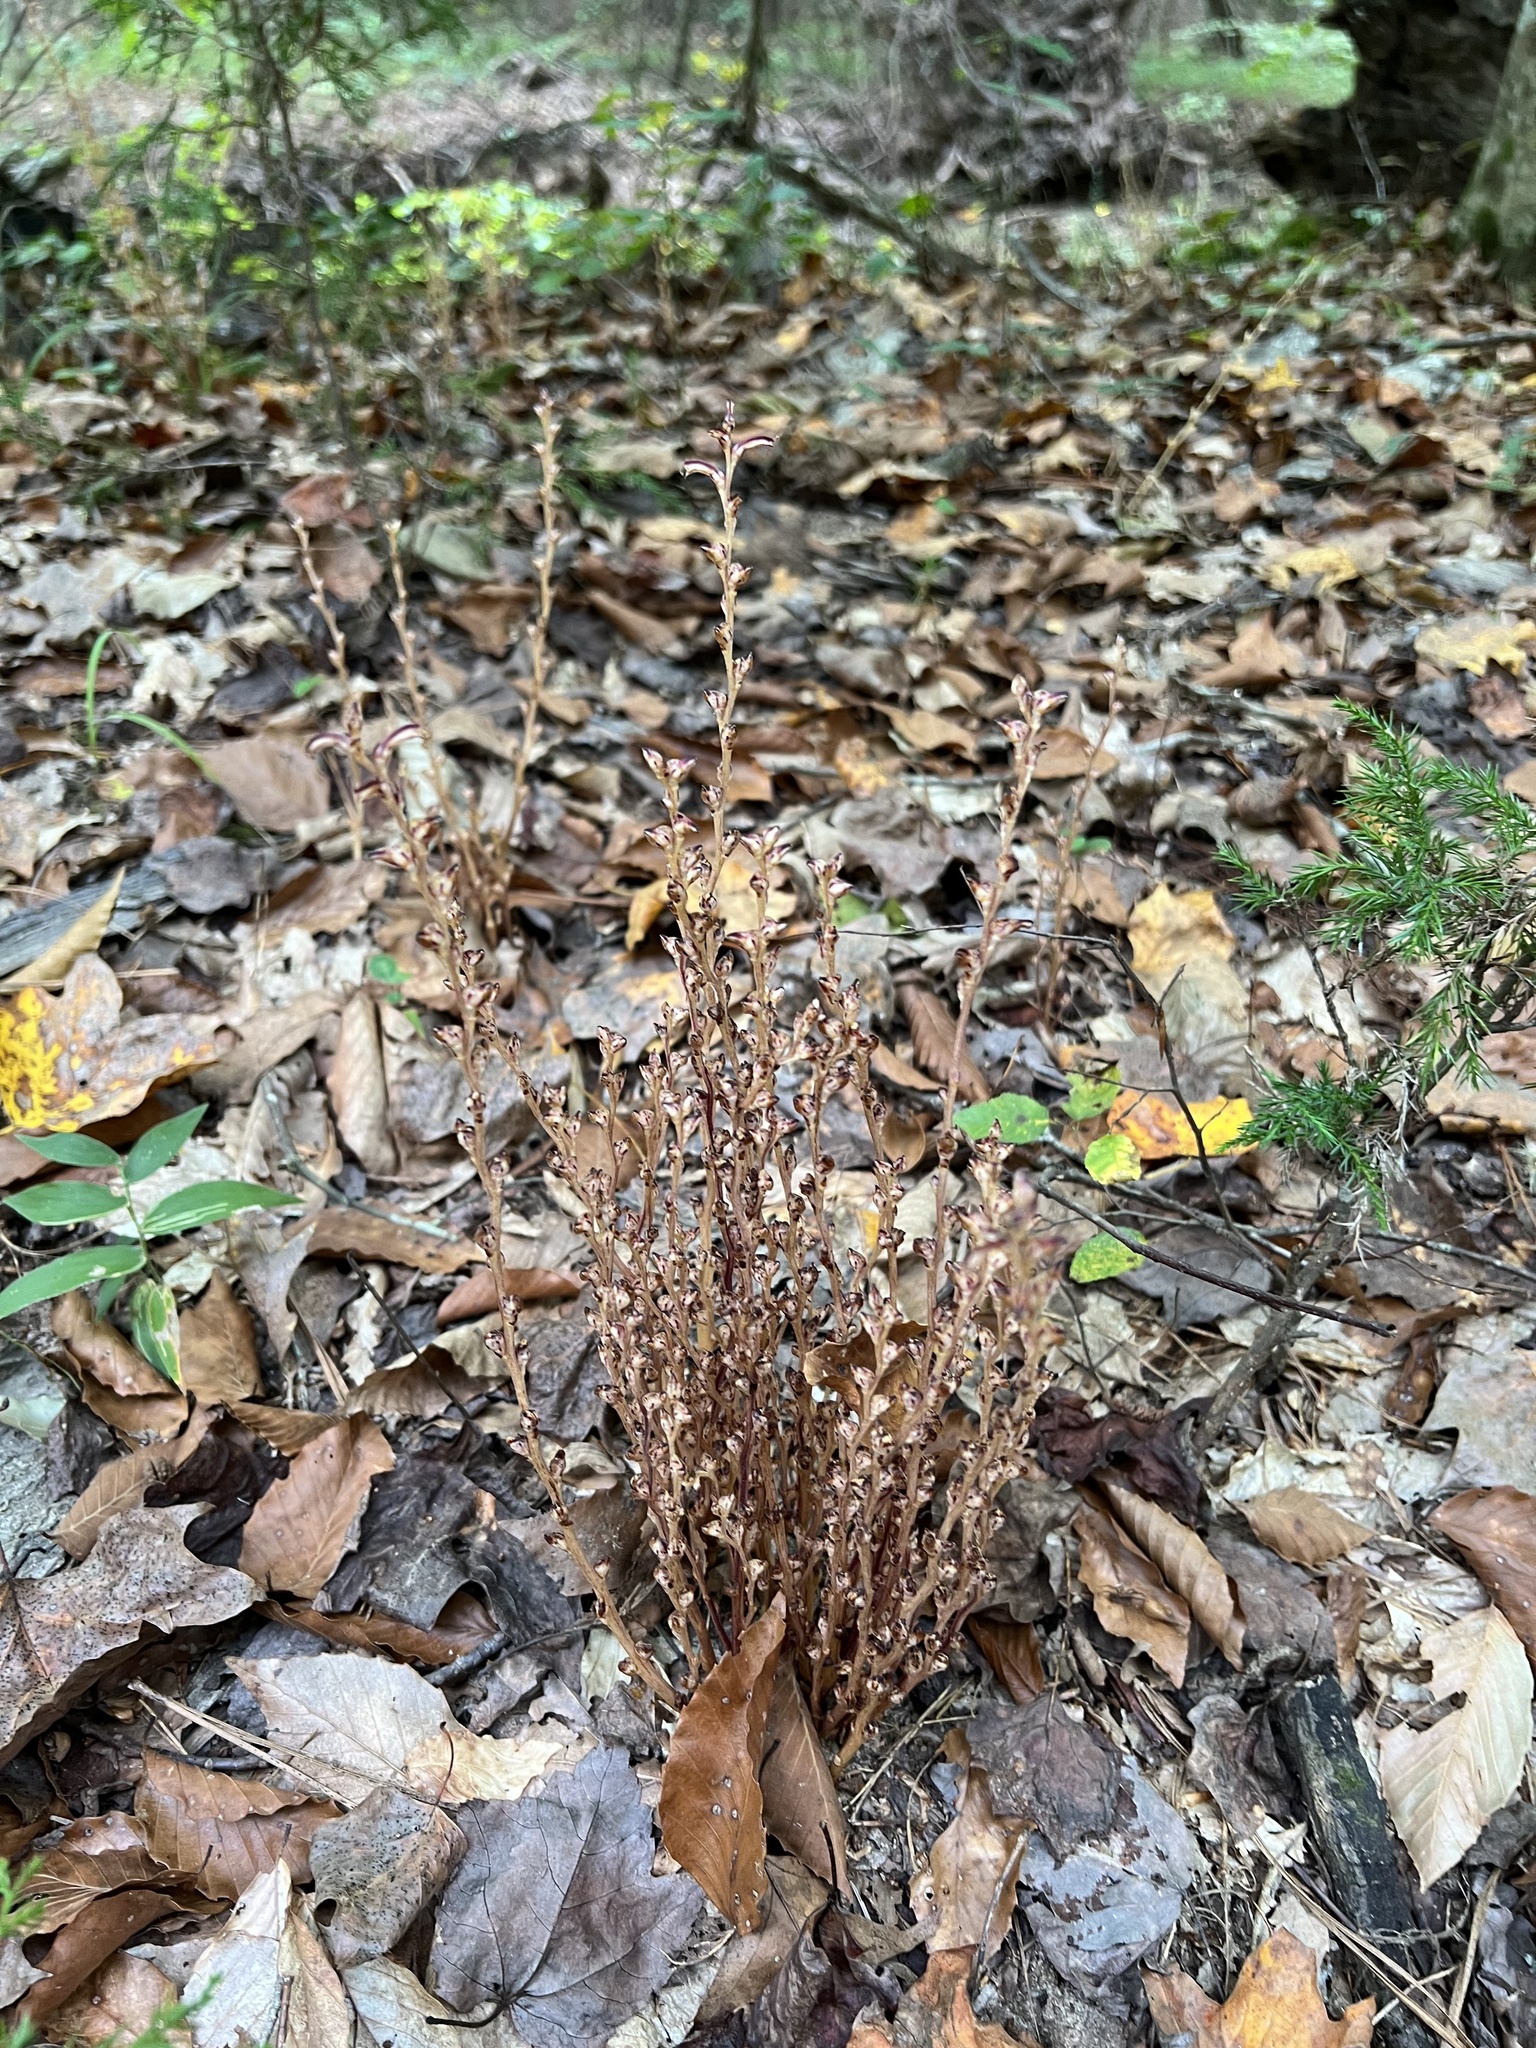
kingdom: Plantae
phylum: Tracheophyta
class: Magnoliopsida
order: Lamiales
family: Orobanchaceae
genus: Epifagus
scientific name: Epifagus virginiana
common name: Beechdrops
